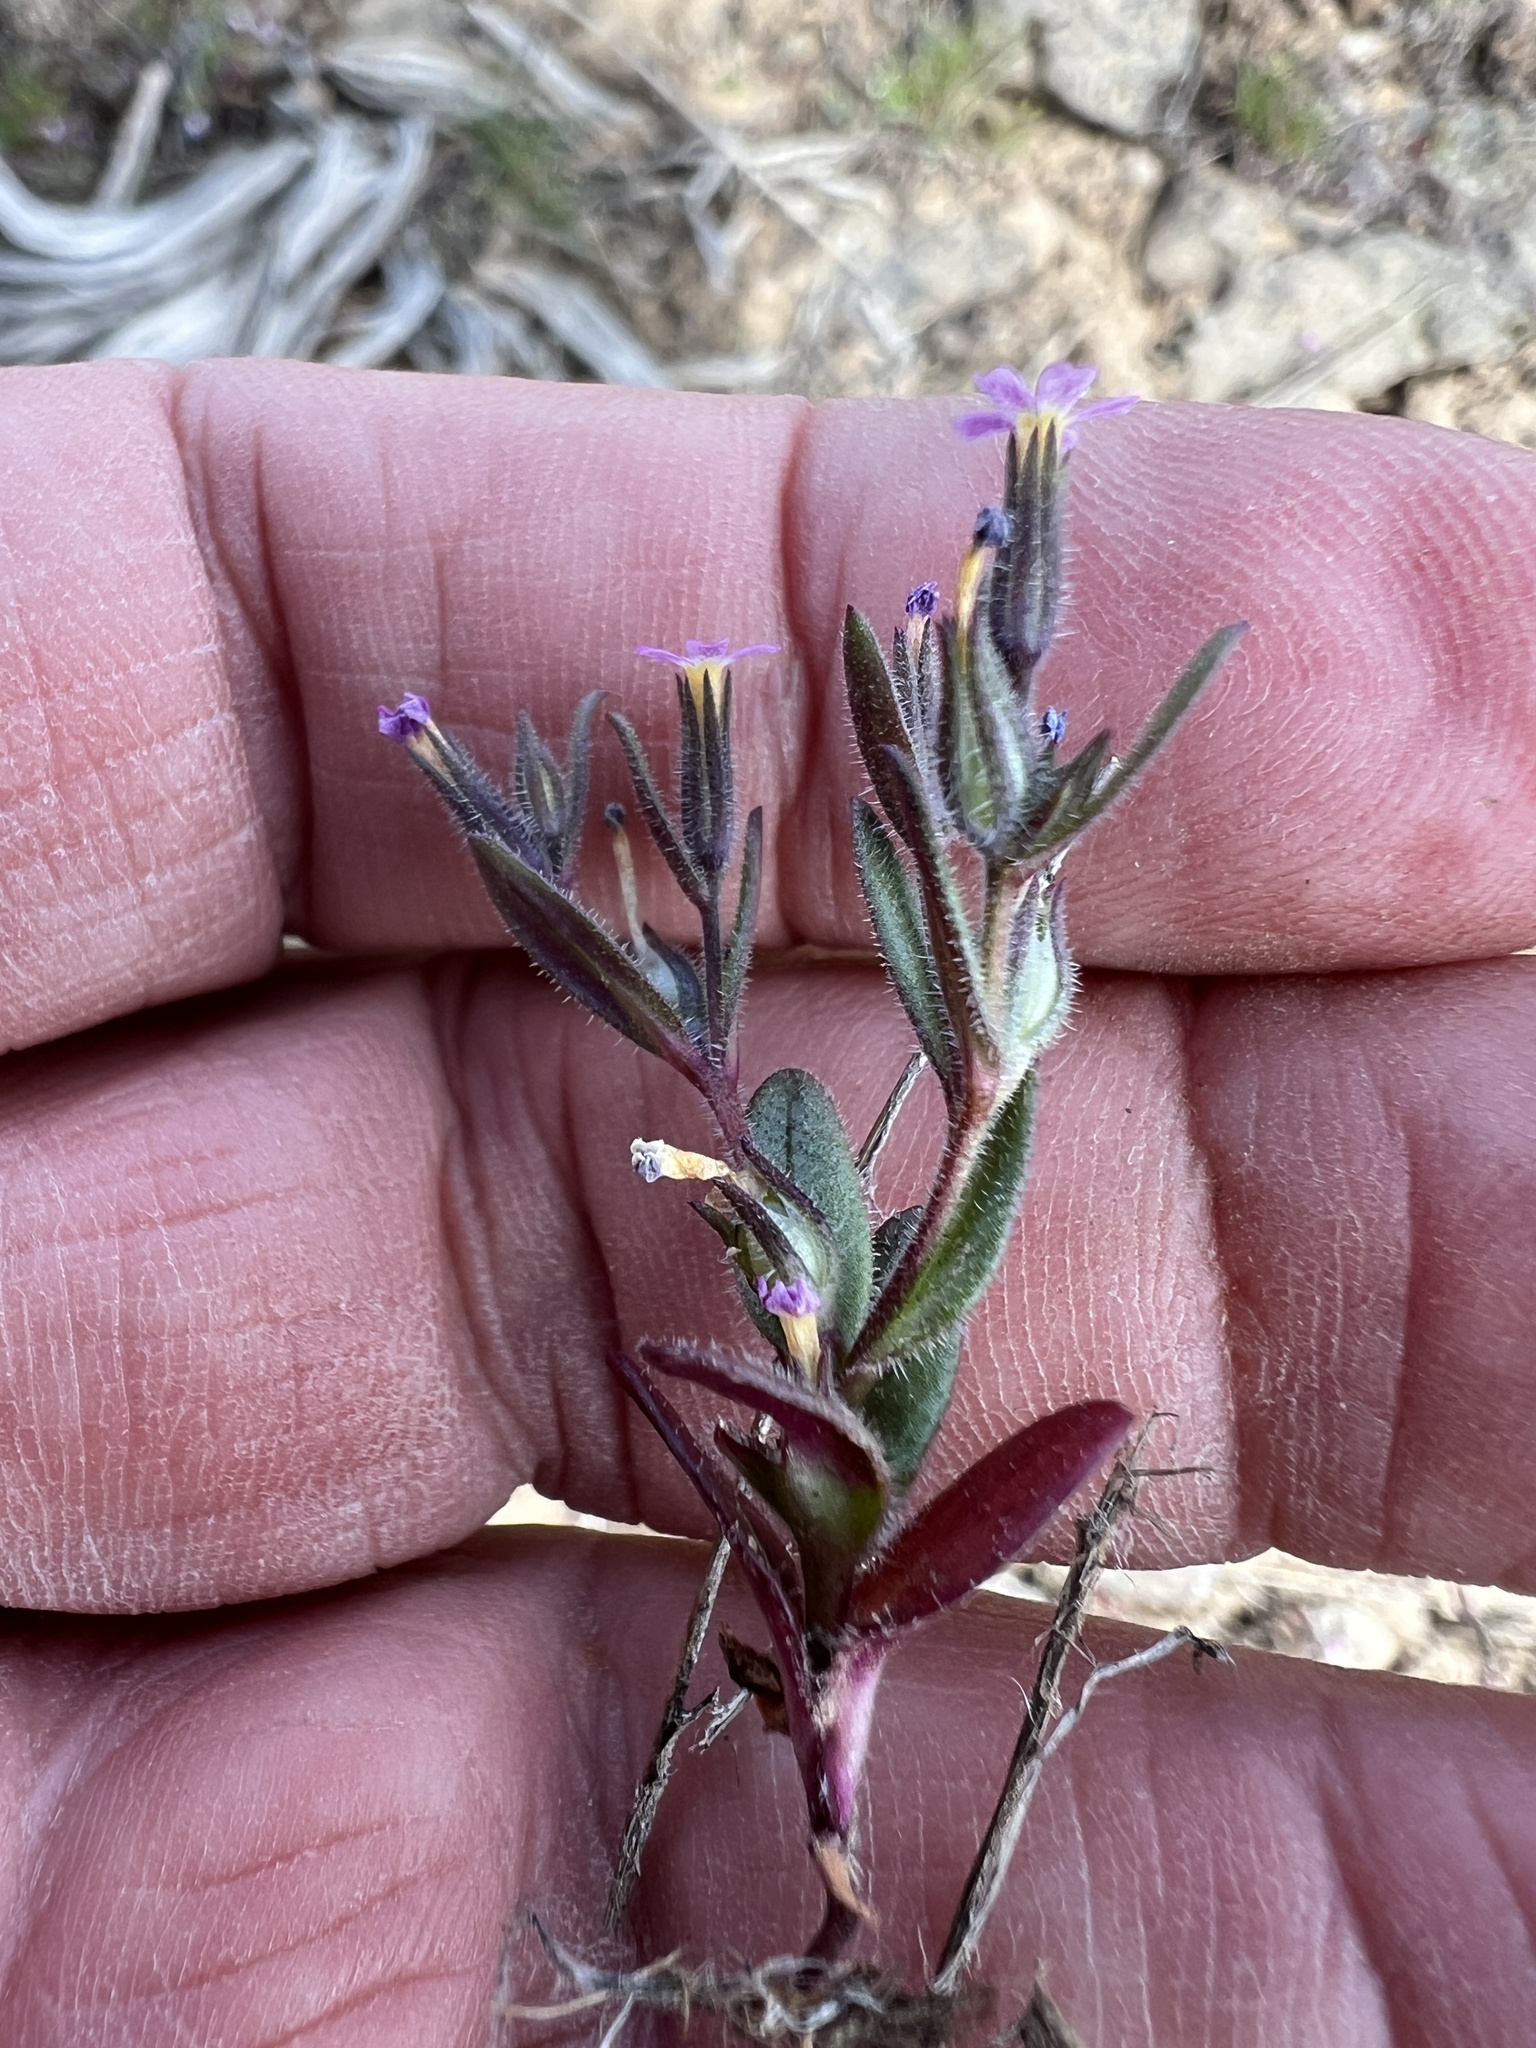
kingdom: Plantae
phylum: Tracheophyta
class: Magnoliopsida
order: Ericales
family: Polemoniaceae
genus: Phlox
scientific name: Phlox gracilis
